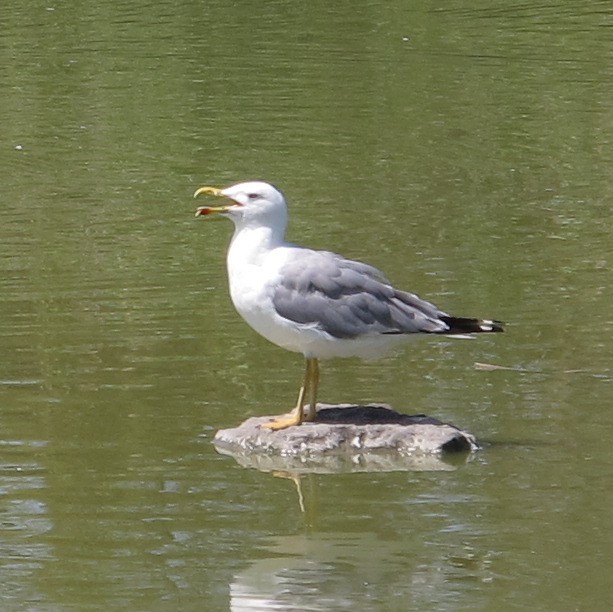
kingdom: Animalia
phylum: Chordata
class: Aves
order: Charadriiformes
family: Laridae
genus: Larus
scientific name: Larus michahellis
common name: Yellow-legged gull
